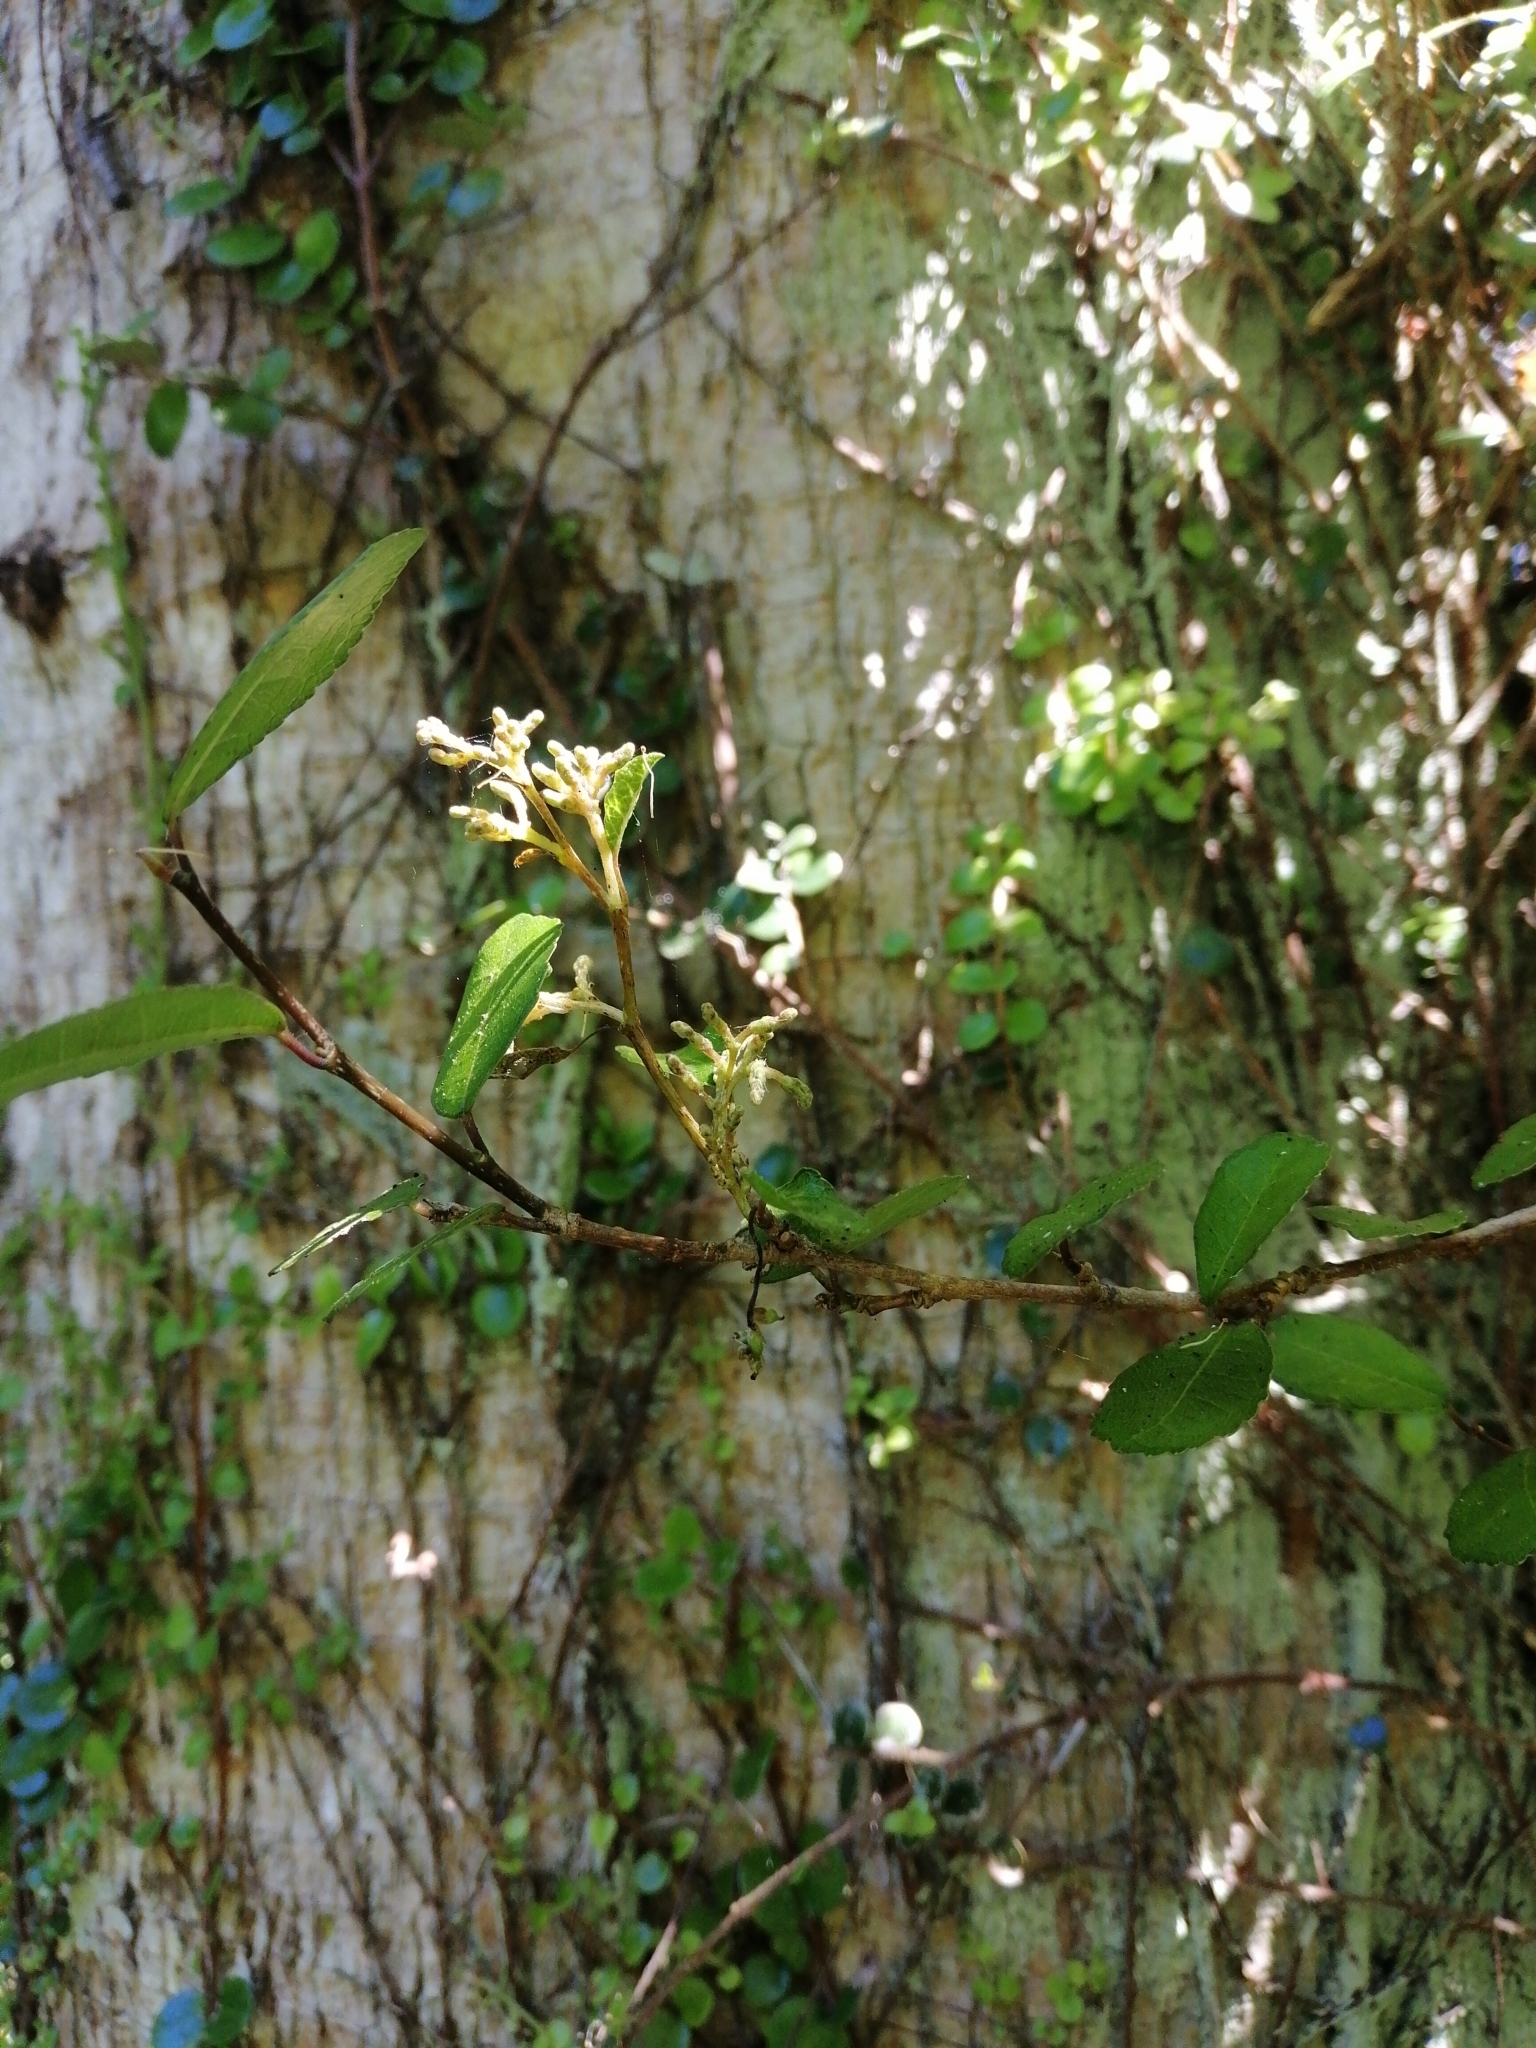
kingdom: Plantae
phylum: Tracheophyta
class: Magnoliopsida
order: Rosales
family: Moraceae
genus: Paratrophis
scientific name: Paratrophis microphylla
